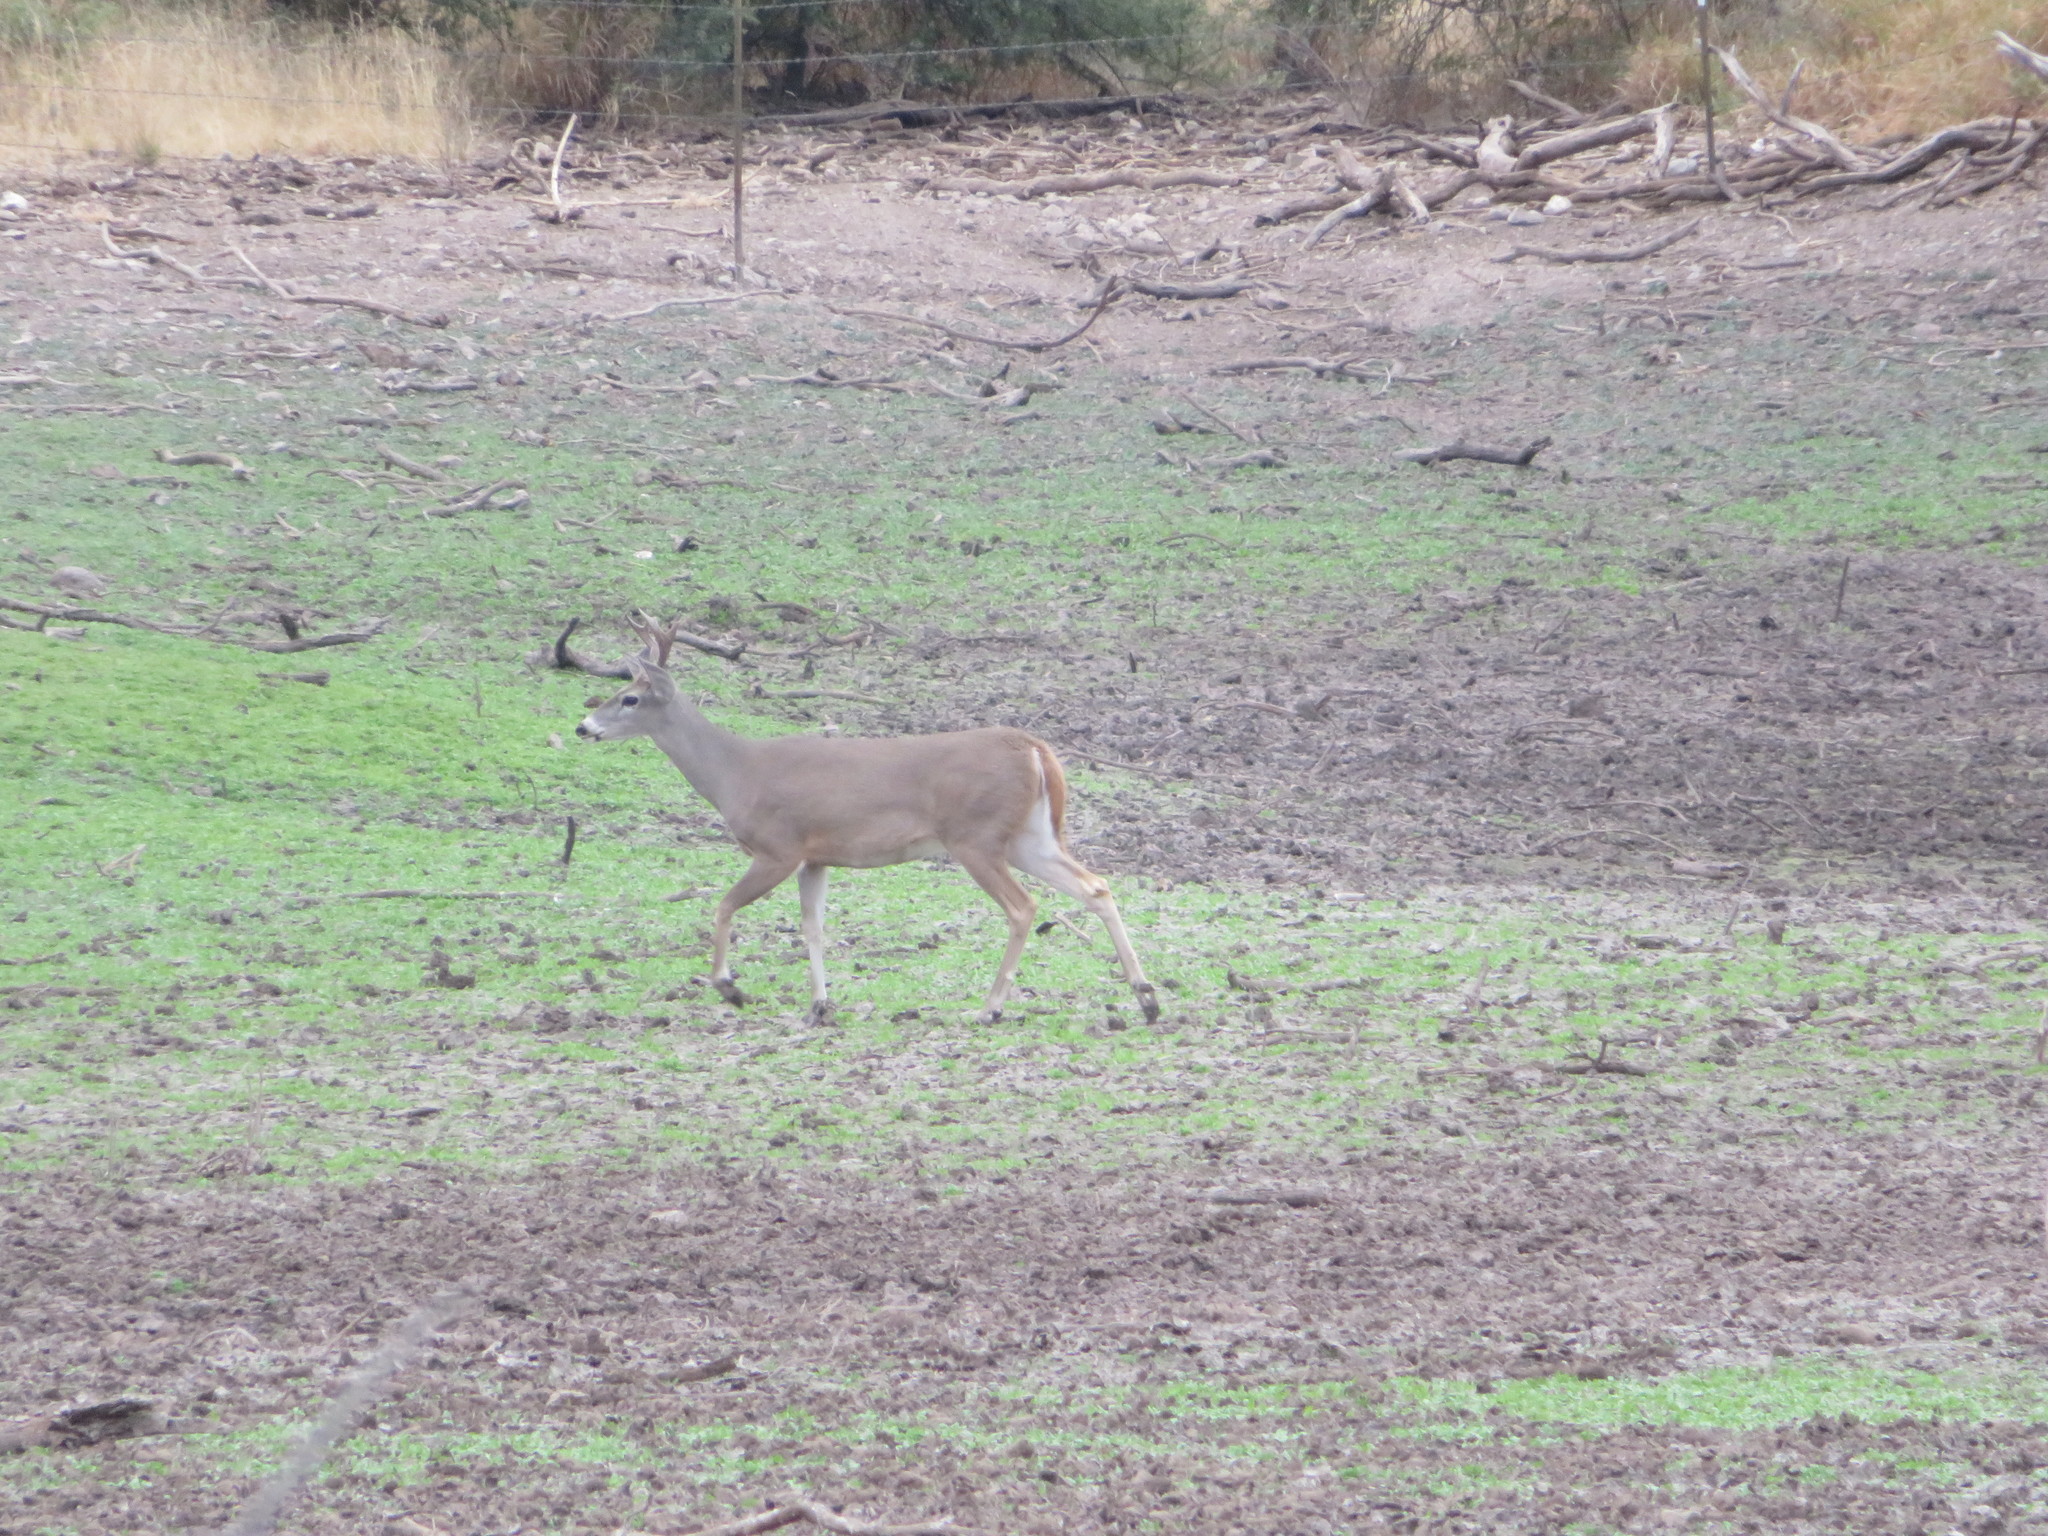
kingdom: Animalia
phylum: Chordata
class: Mammalia
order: Artiodactyla
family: Cervidae
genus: Odocoileus
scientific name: Odocoileus virginianus
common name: White-tailed deer
